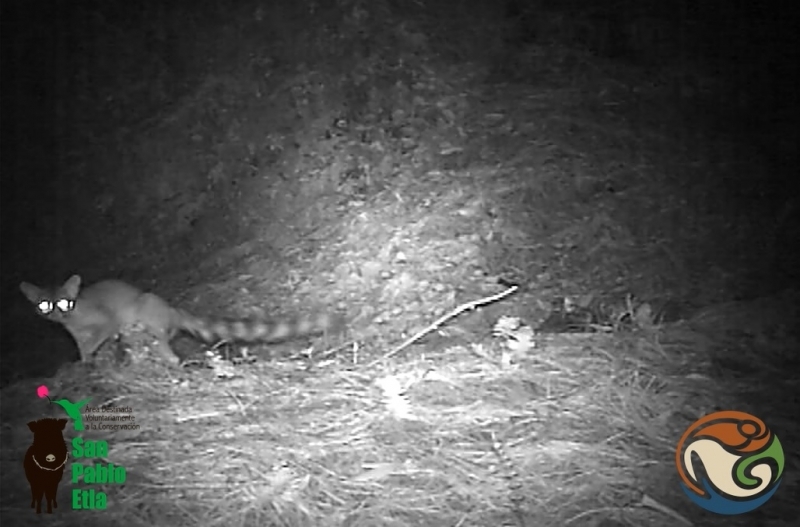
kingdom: Animalia
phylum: Chordata
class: Mammalia
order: Carnivora
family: Procyonidae
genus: Bassariscus
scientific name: Bassariscus astutus
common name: Ringtail
